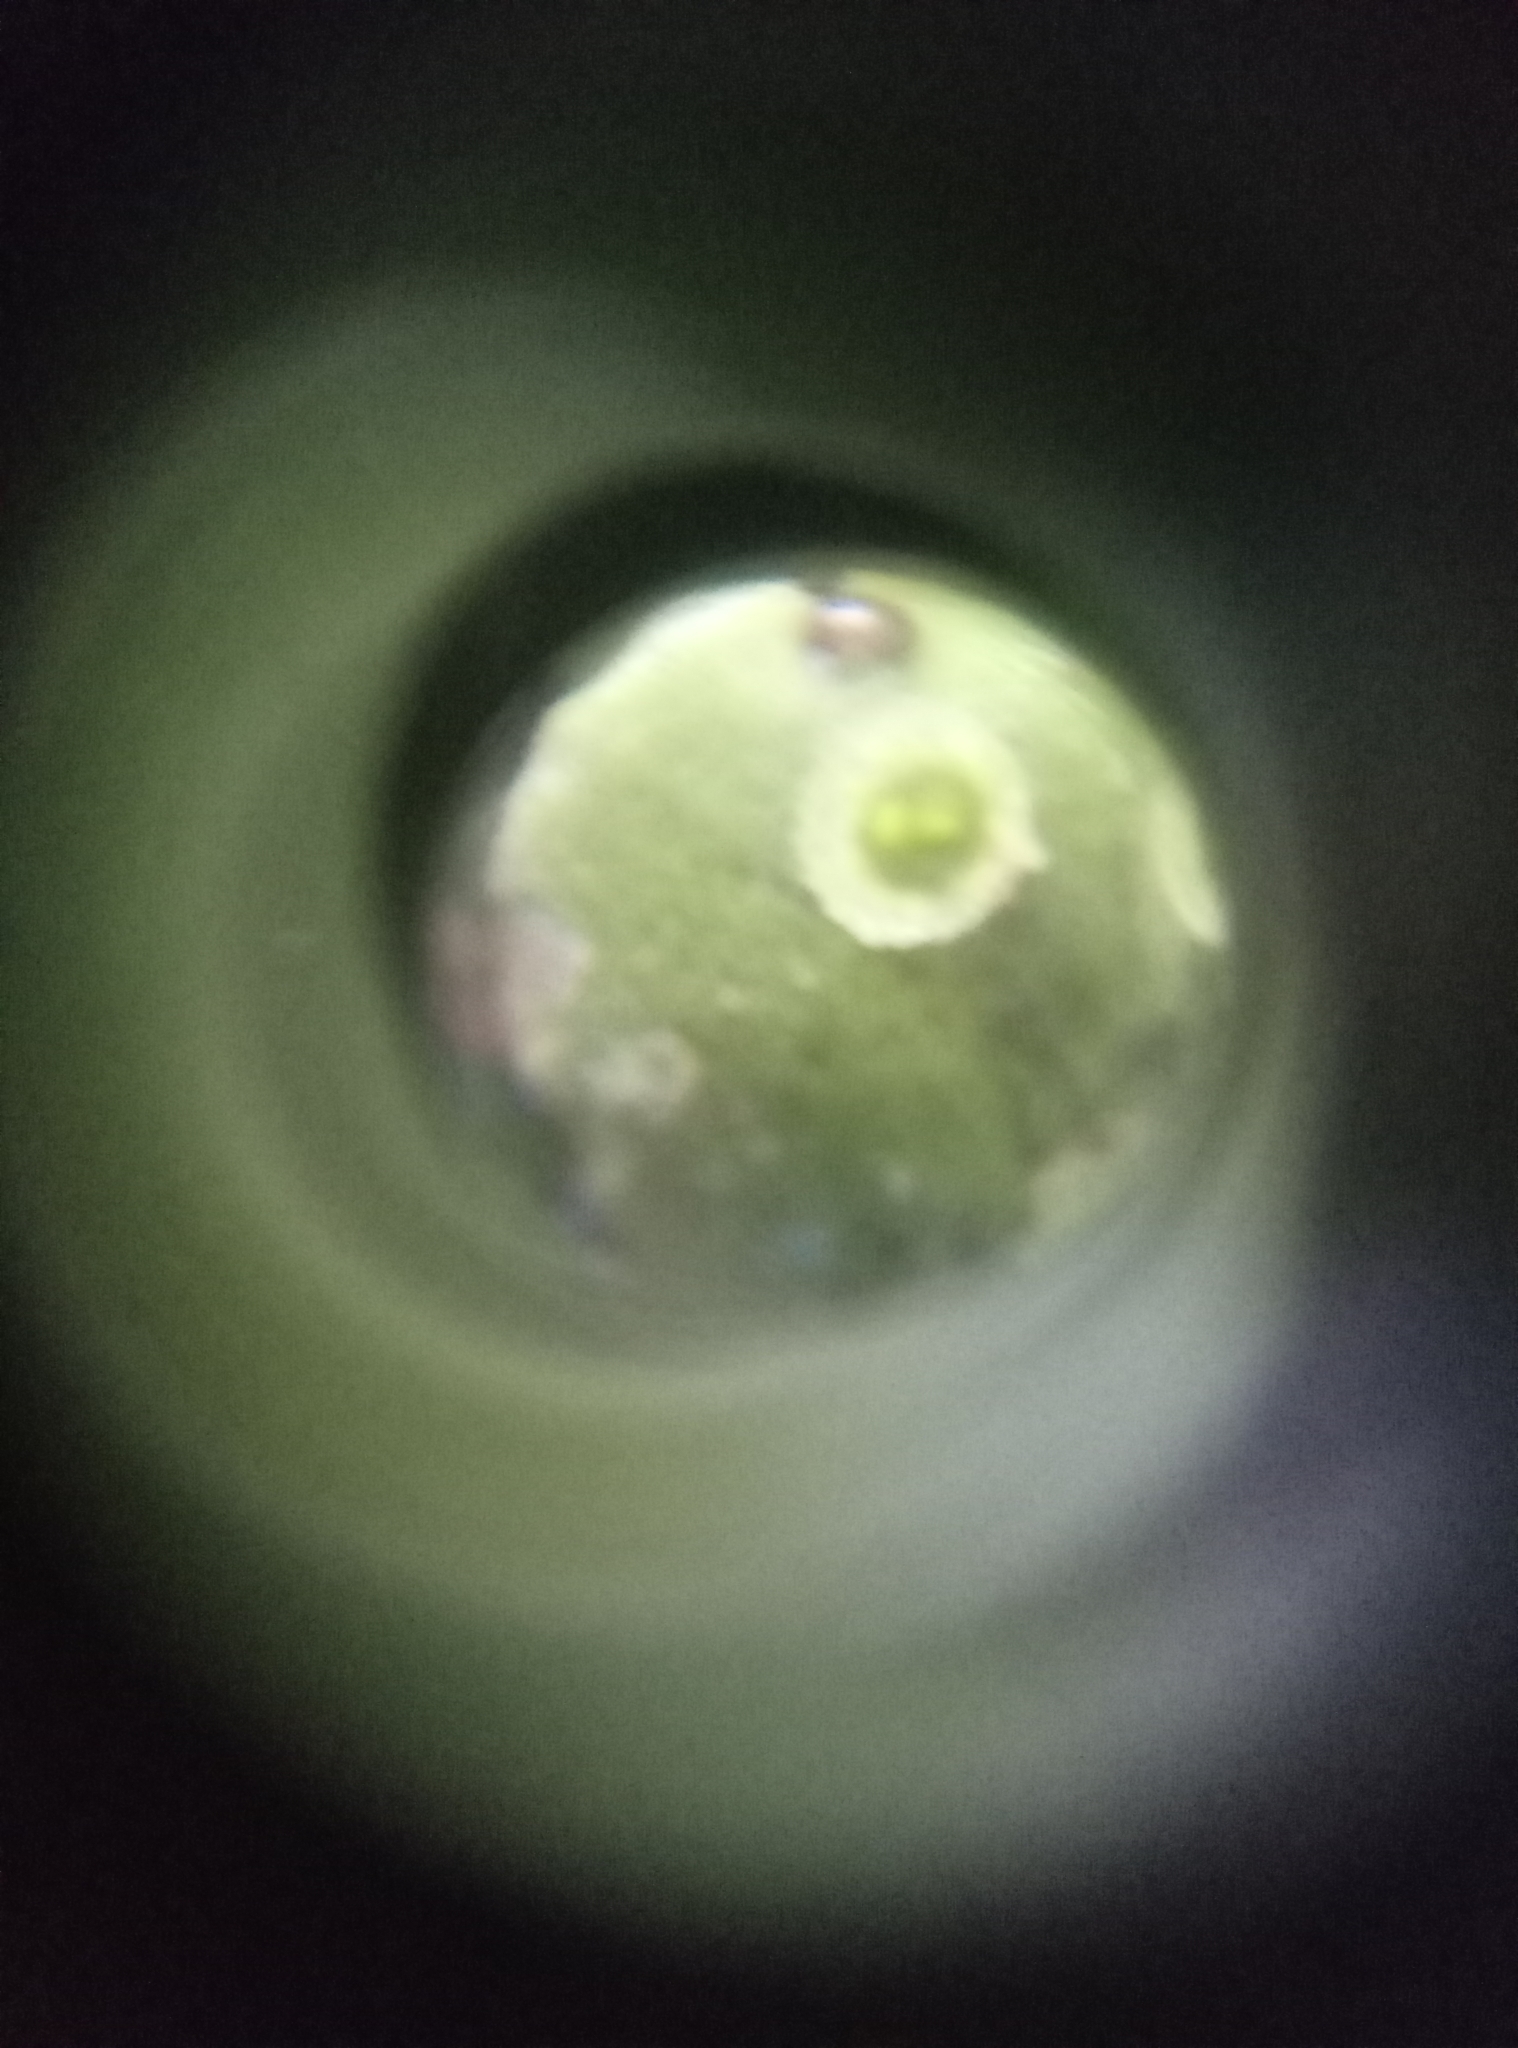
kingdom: Plantae
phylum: Marchantiophyta
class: Marchantiopsida
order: Marchantiales
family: Marchantiaceae
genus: Marchantia
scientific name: Marchantia polymorpha
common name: Common liverwort
